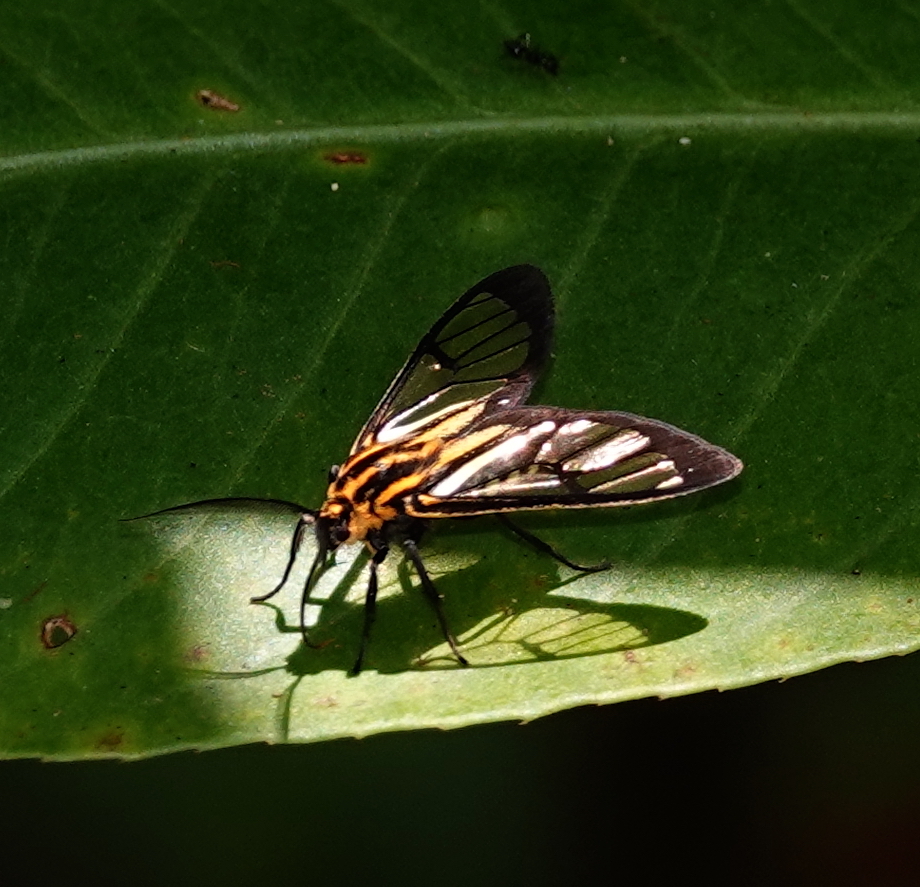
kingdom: Animalia
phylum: Arthropoda
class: Insecta
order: Lepidoptera
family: Erebidae
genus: Paraethria
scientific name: Paraethria flavosignata
